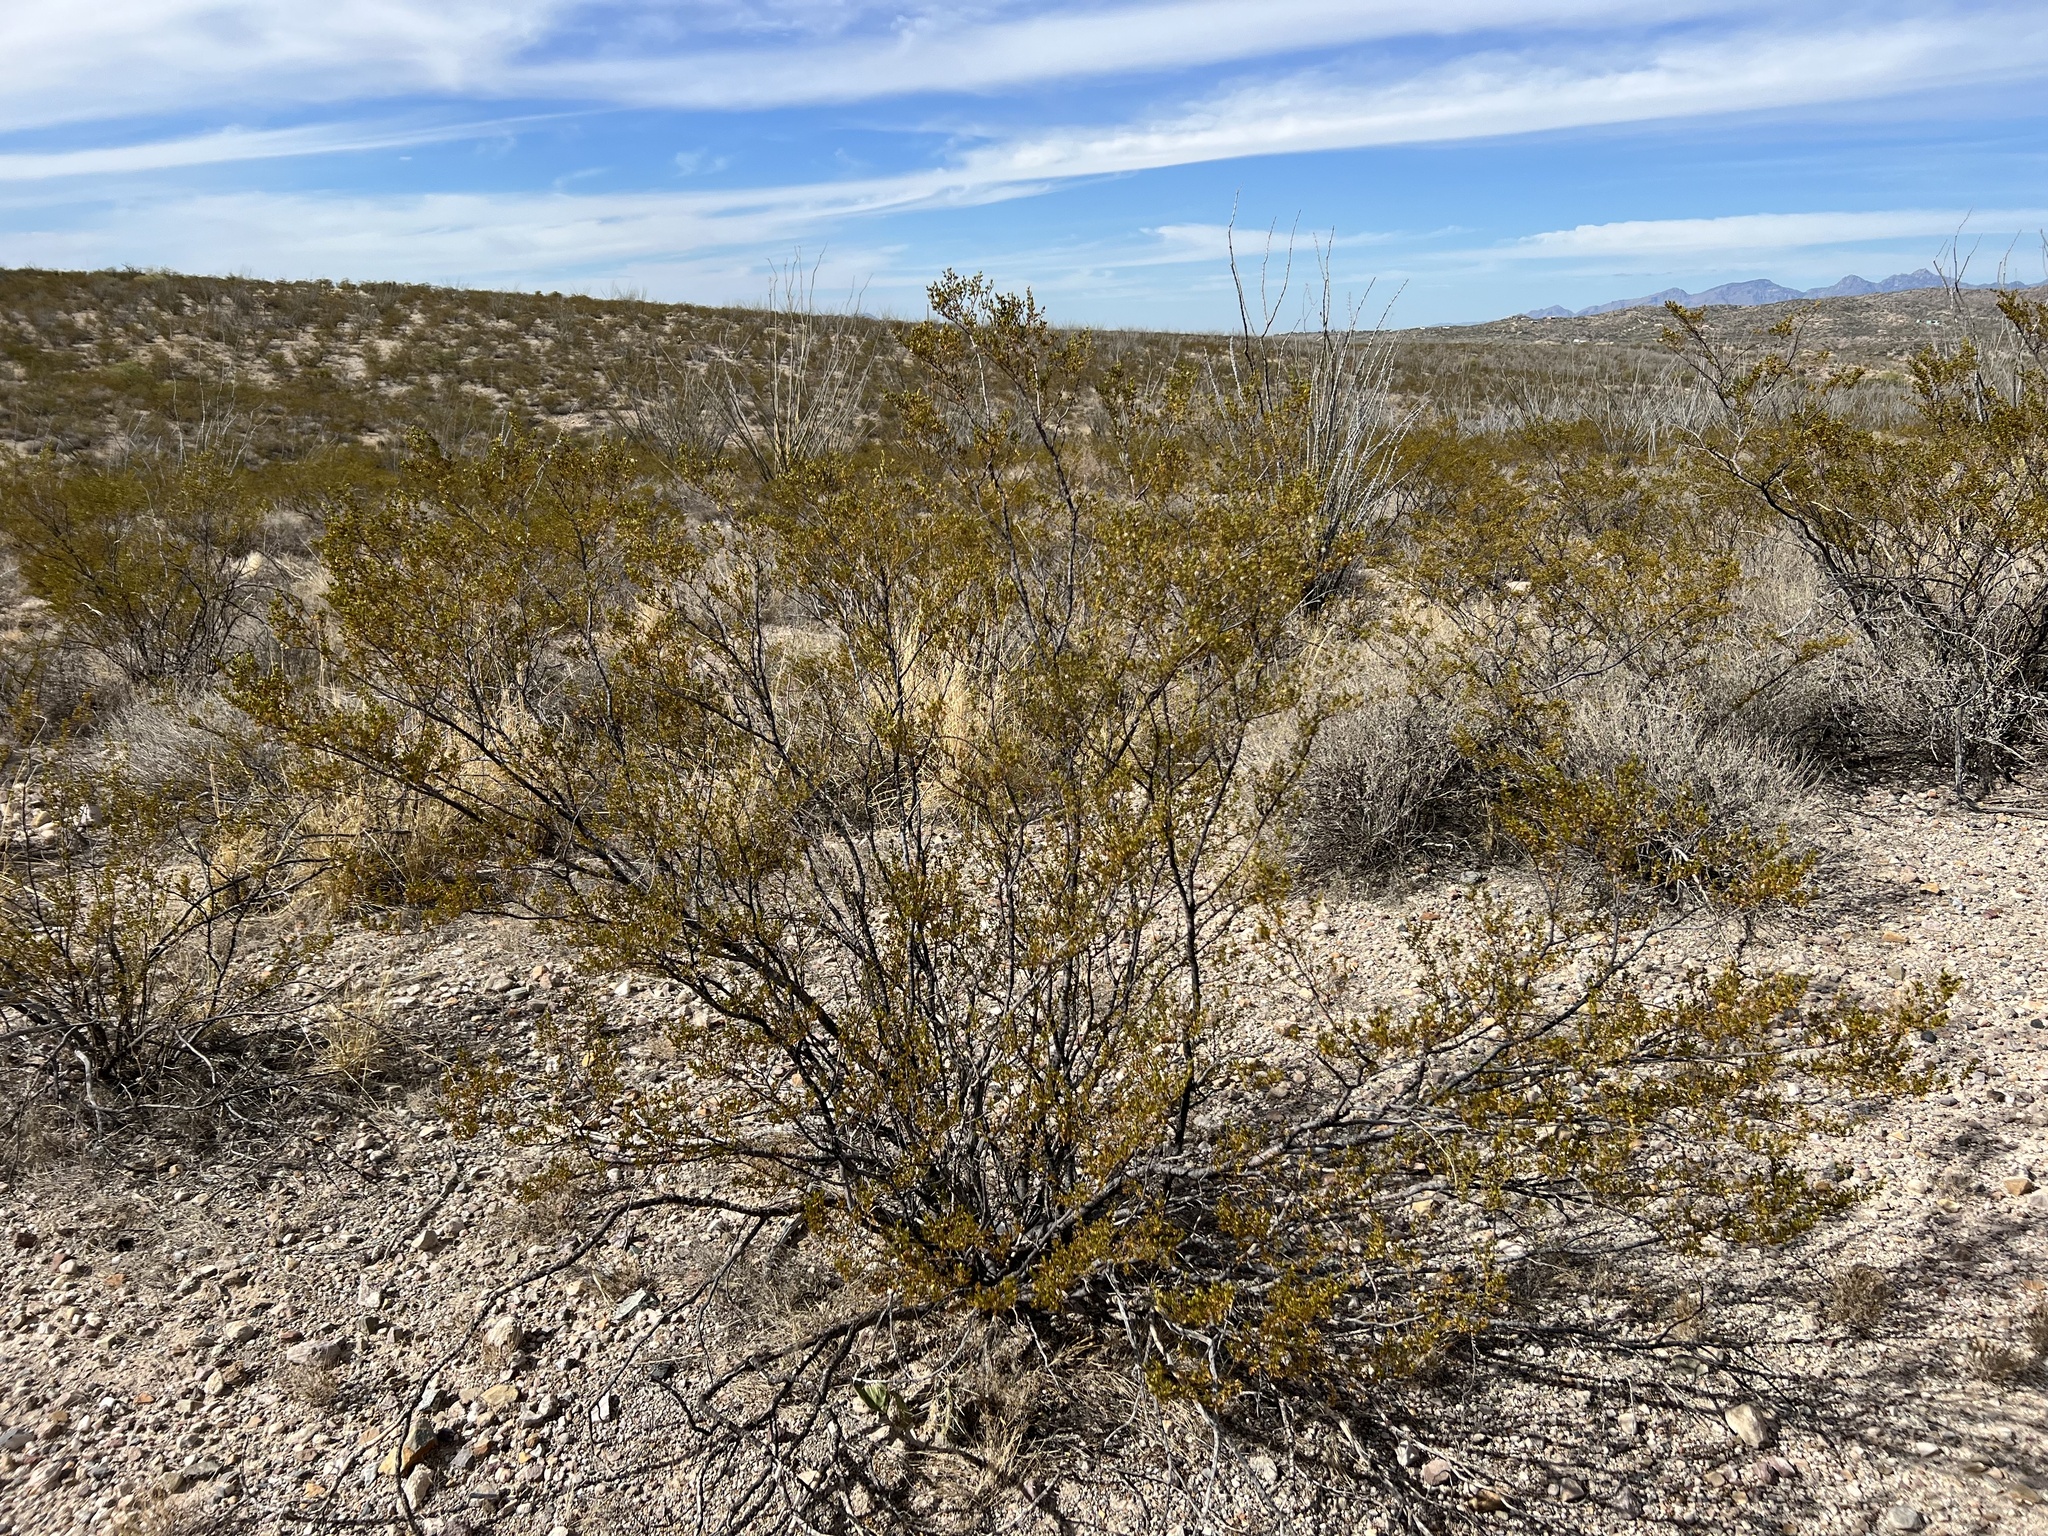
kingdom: Plantae
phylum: Tracheophyta
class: Magnoliopsida
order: Zygophyllales
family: Zygophyllaceae
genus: Larrea
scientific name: Larrea tridentata
